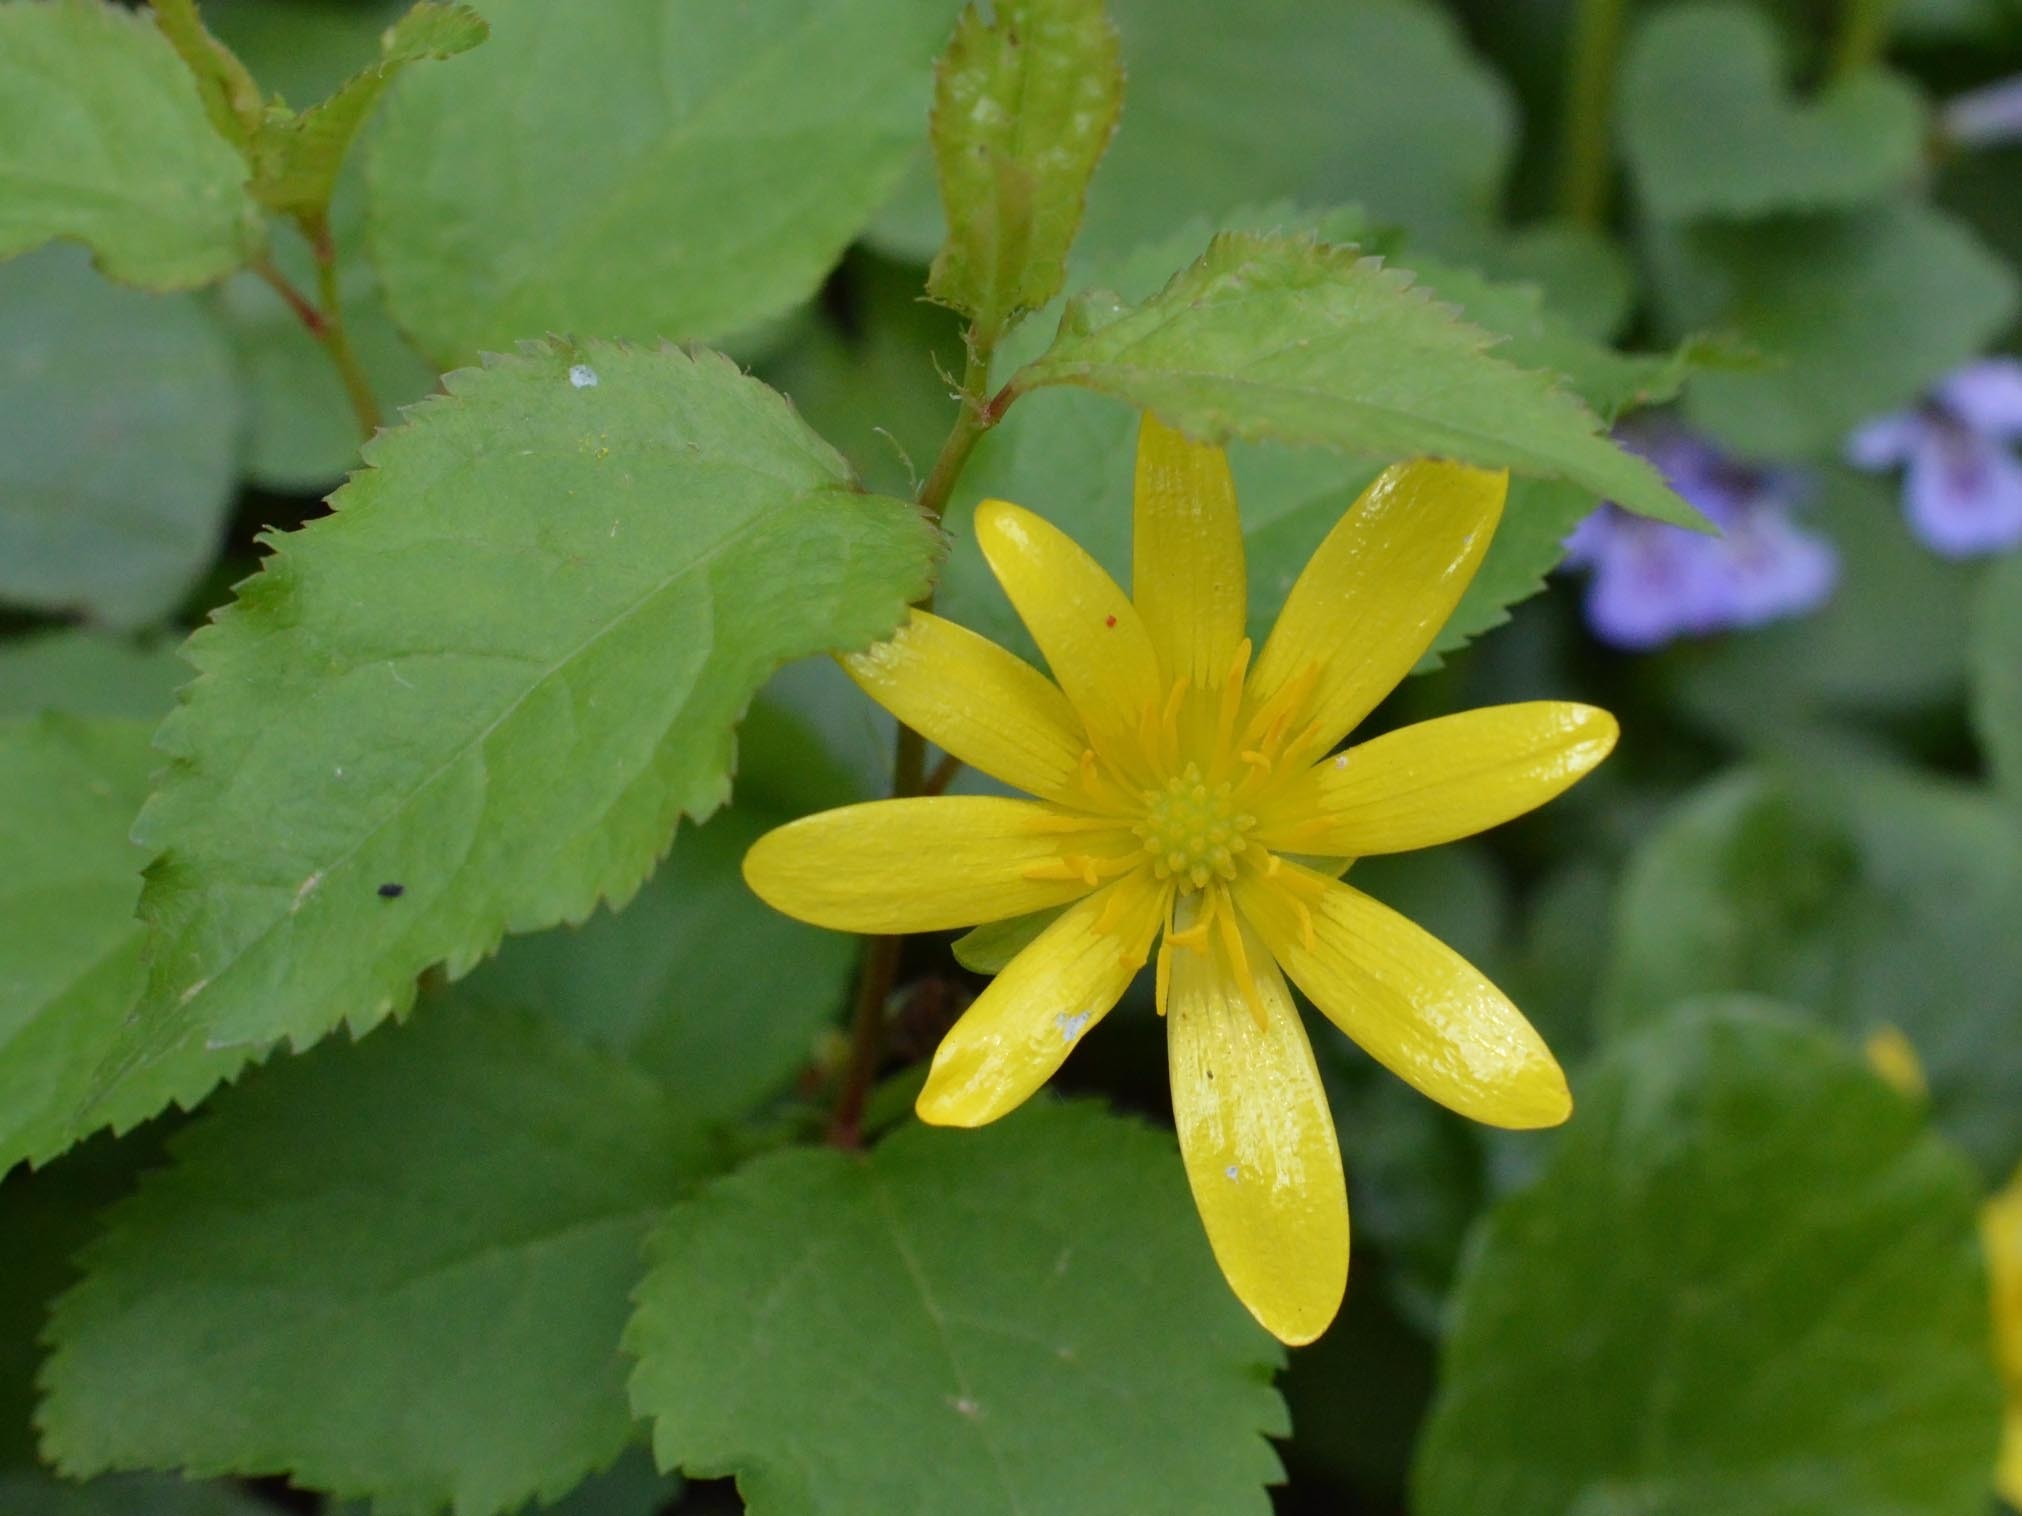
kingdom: Plantae
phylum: Tracheophyta
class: Magnoliopsida
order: Ranunculales
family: Ranunculaceae
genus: Ficaria
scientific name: Ficaria verna
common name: Lesser celandine
